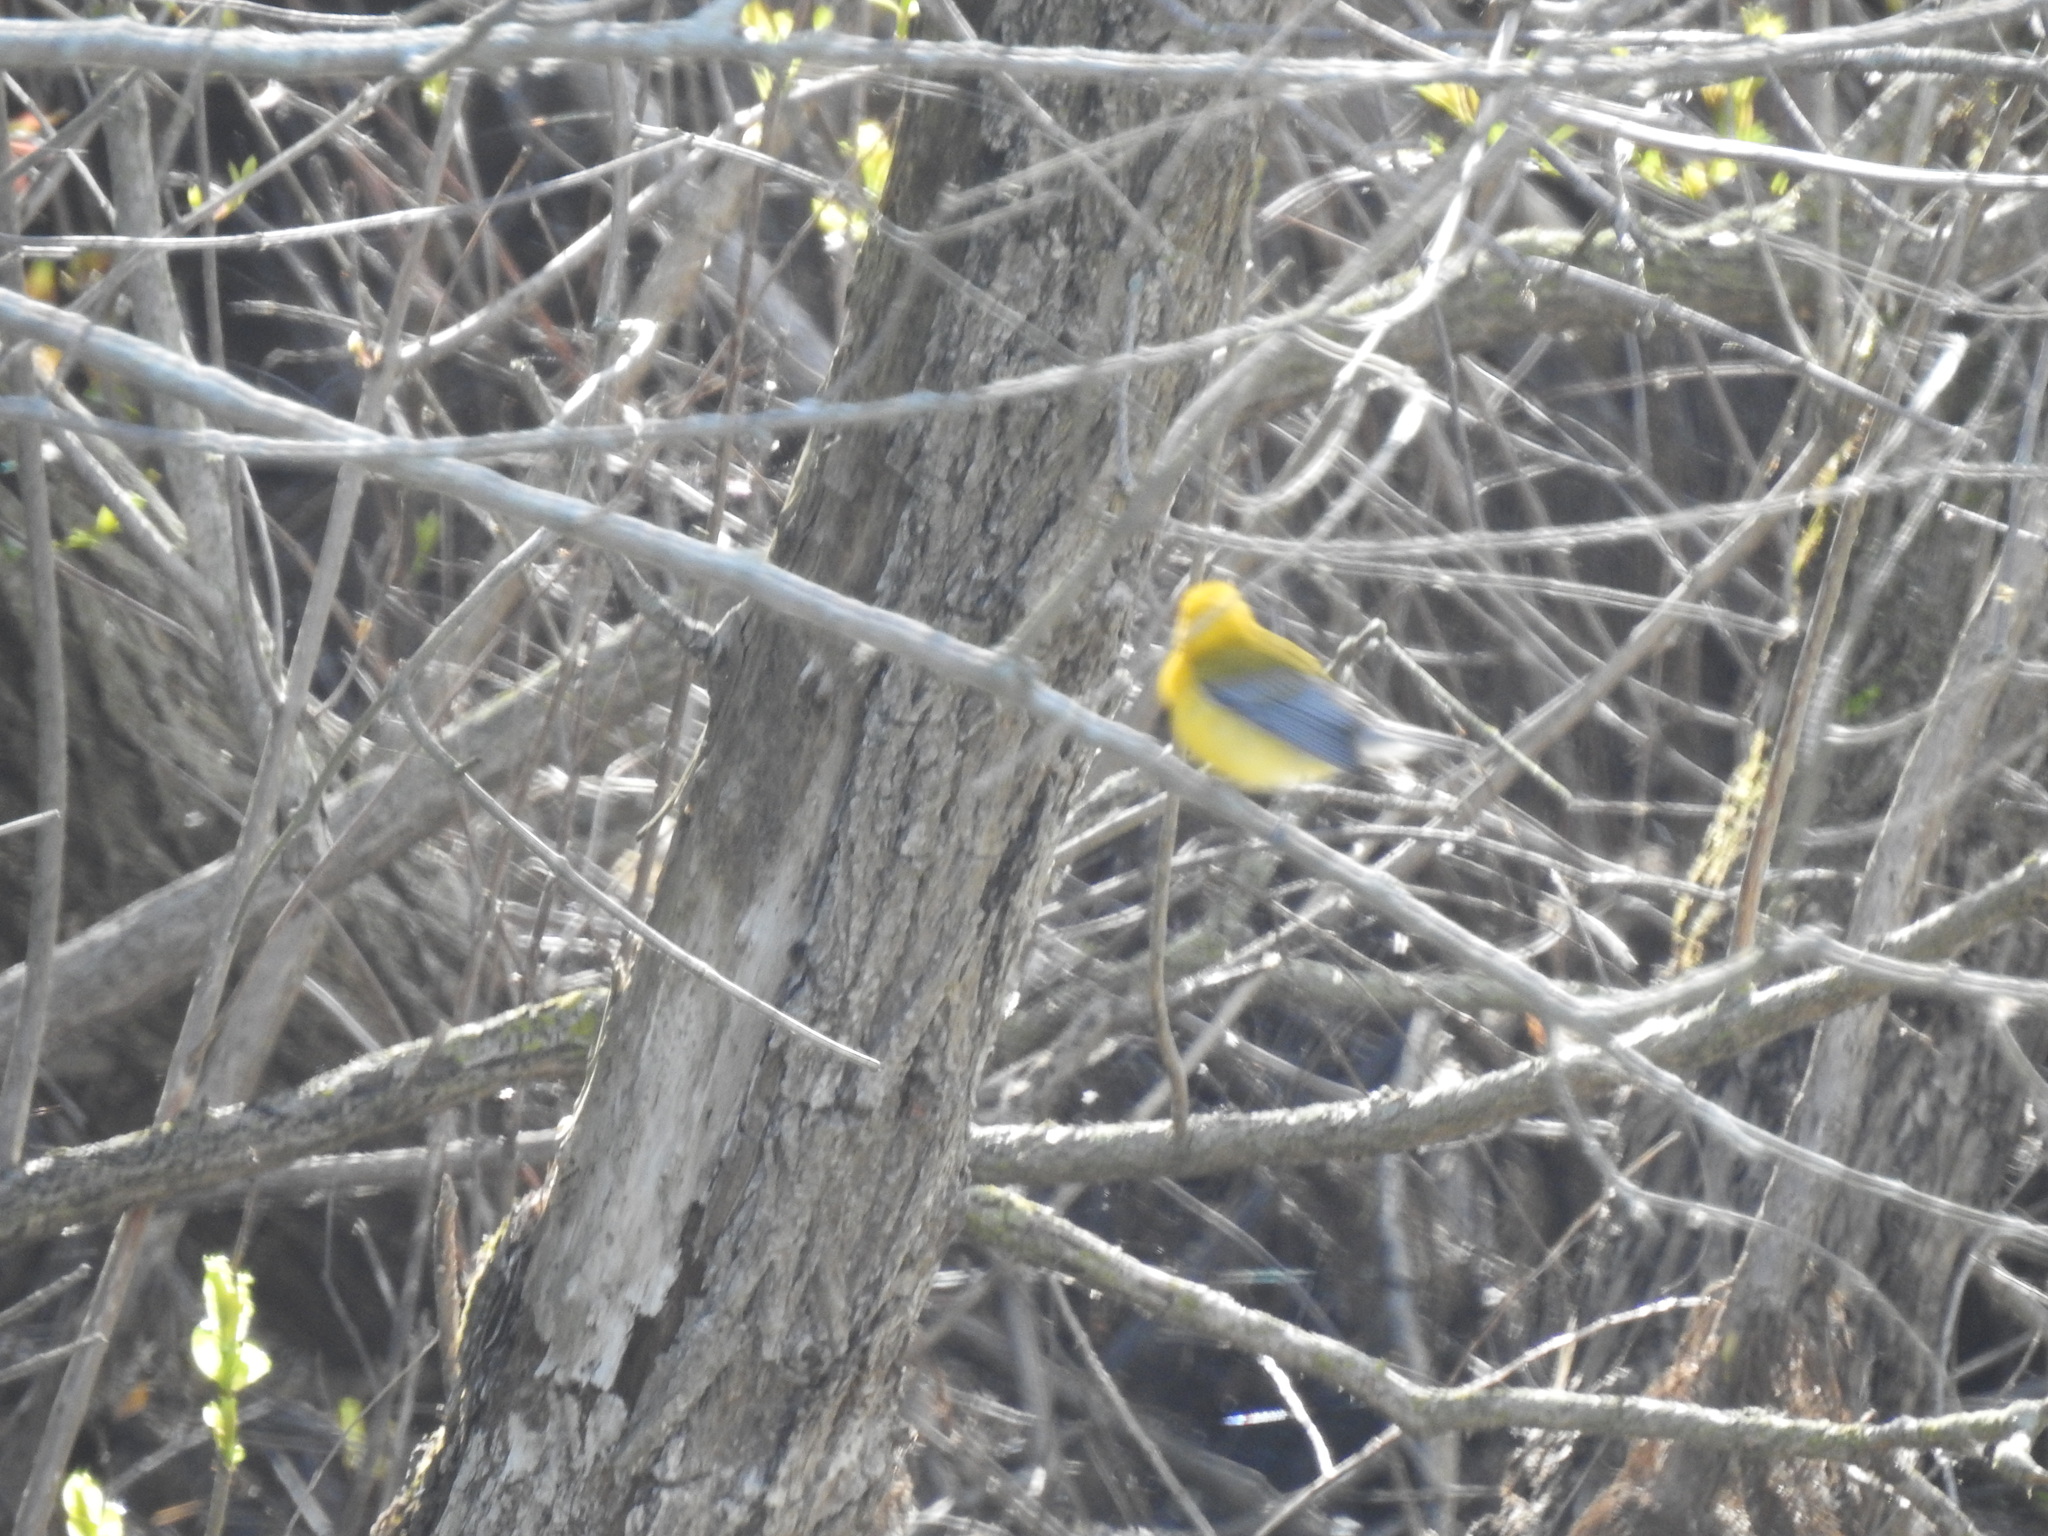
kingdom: Animalia
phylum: Chordata
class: Aves
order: Passeriformes
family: Parulidae
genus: Protonotaria
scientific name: Protonotaria citrea
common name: Prothonotary warbler
